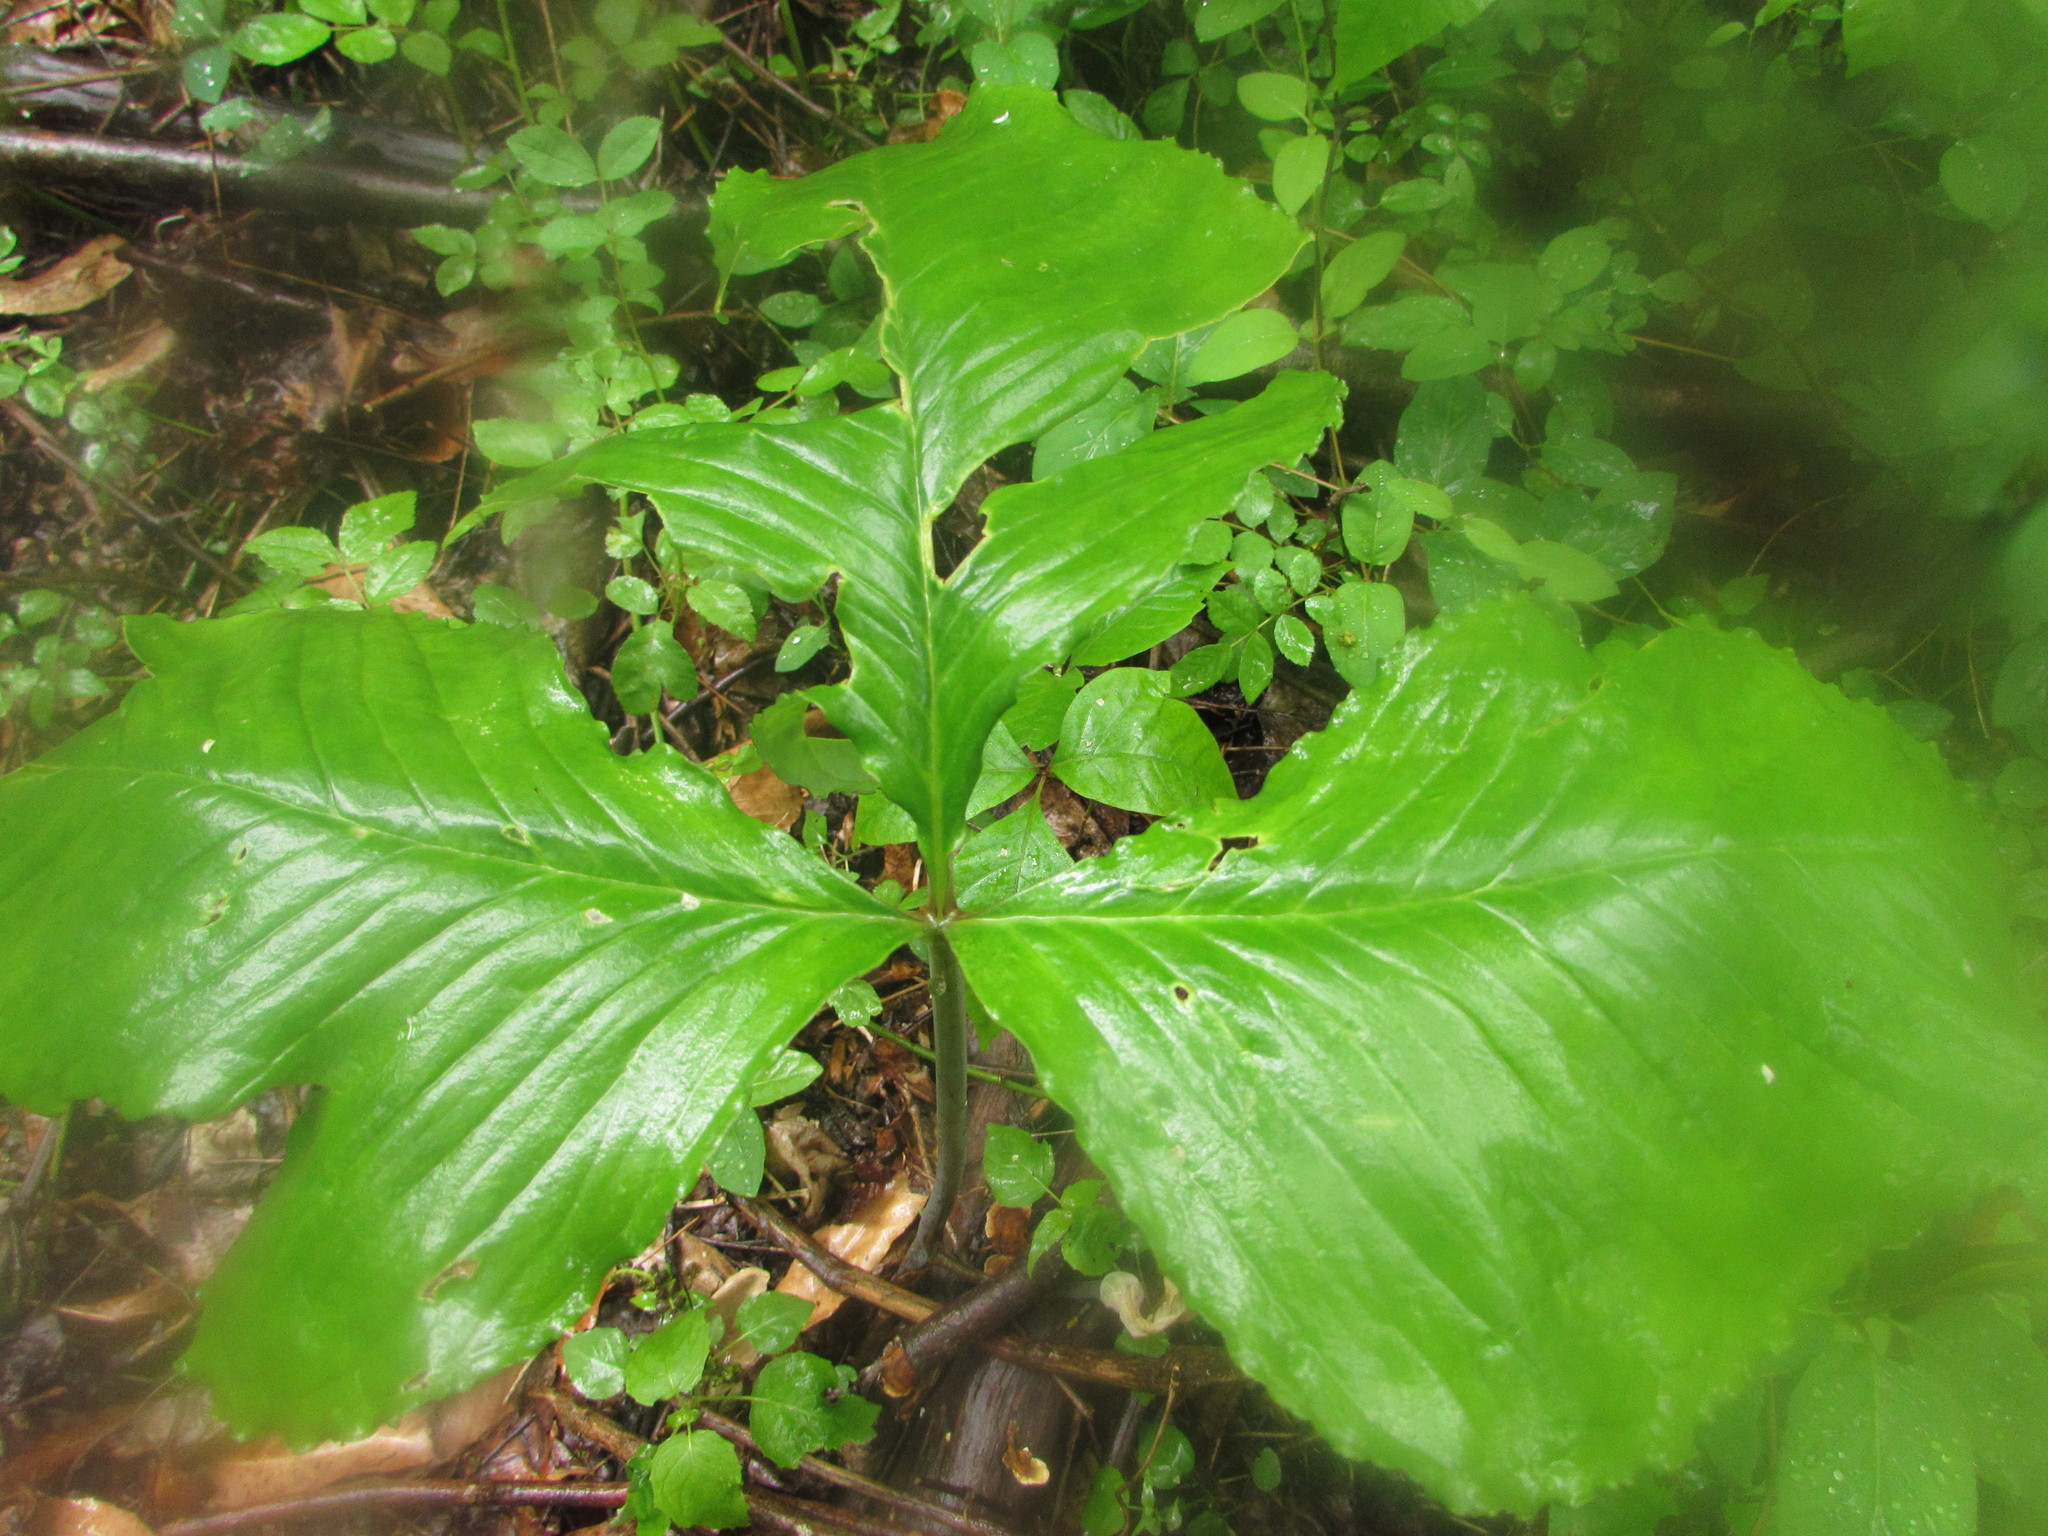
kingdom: Plantae
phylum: Tracheophyta
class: Liliopsida
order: Alismatales
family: Araceae
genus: Arisaema
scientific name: Arisaema triphyllum
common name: Jack-in-the-pulpit
